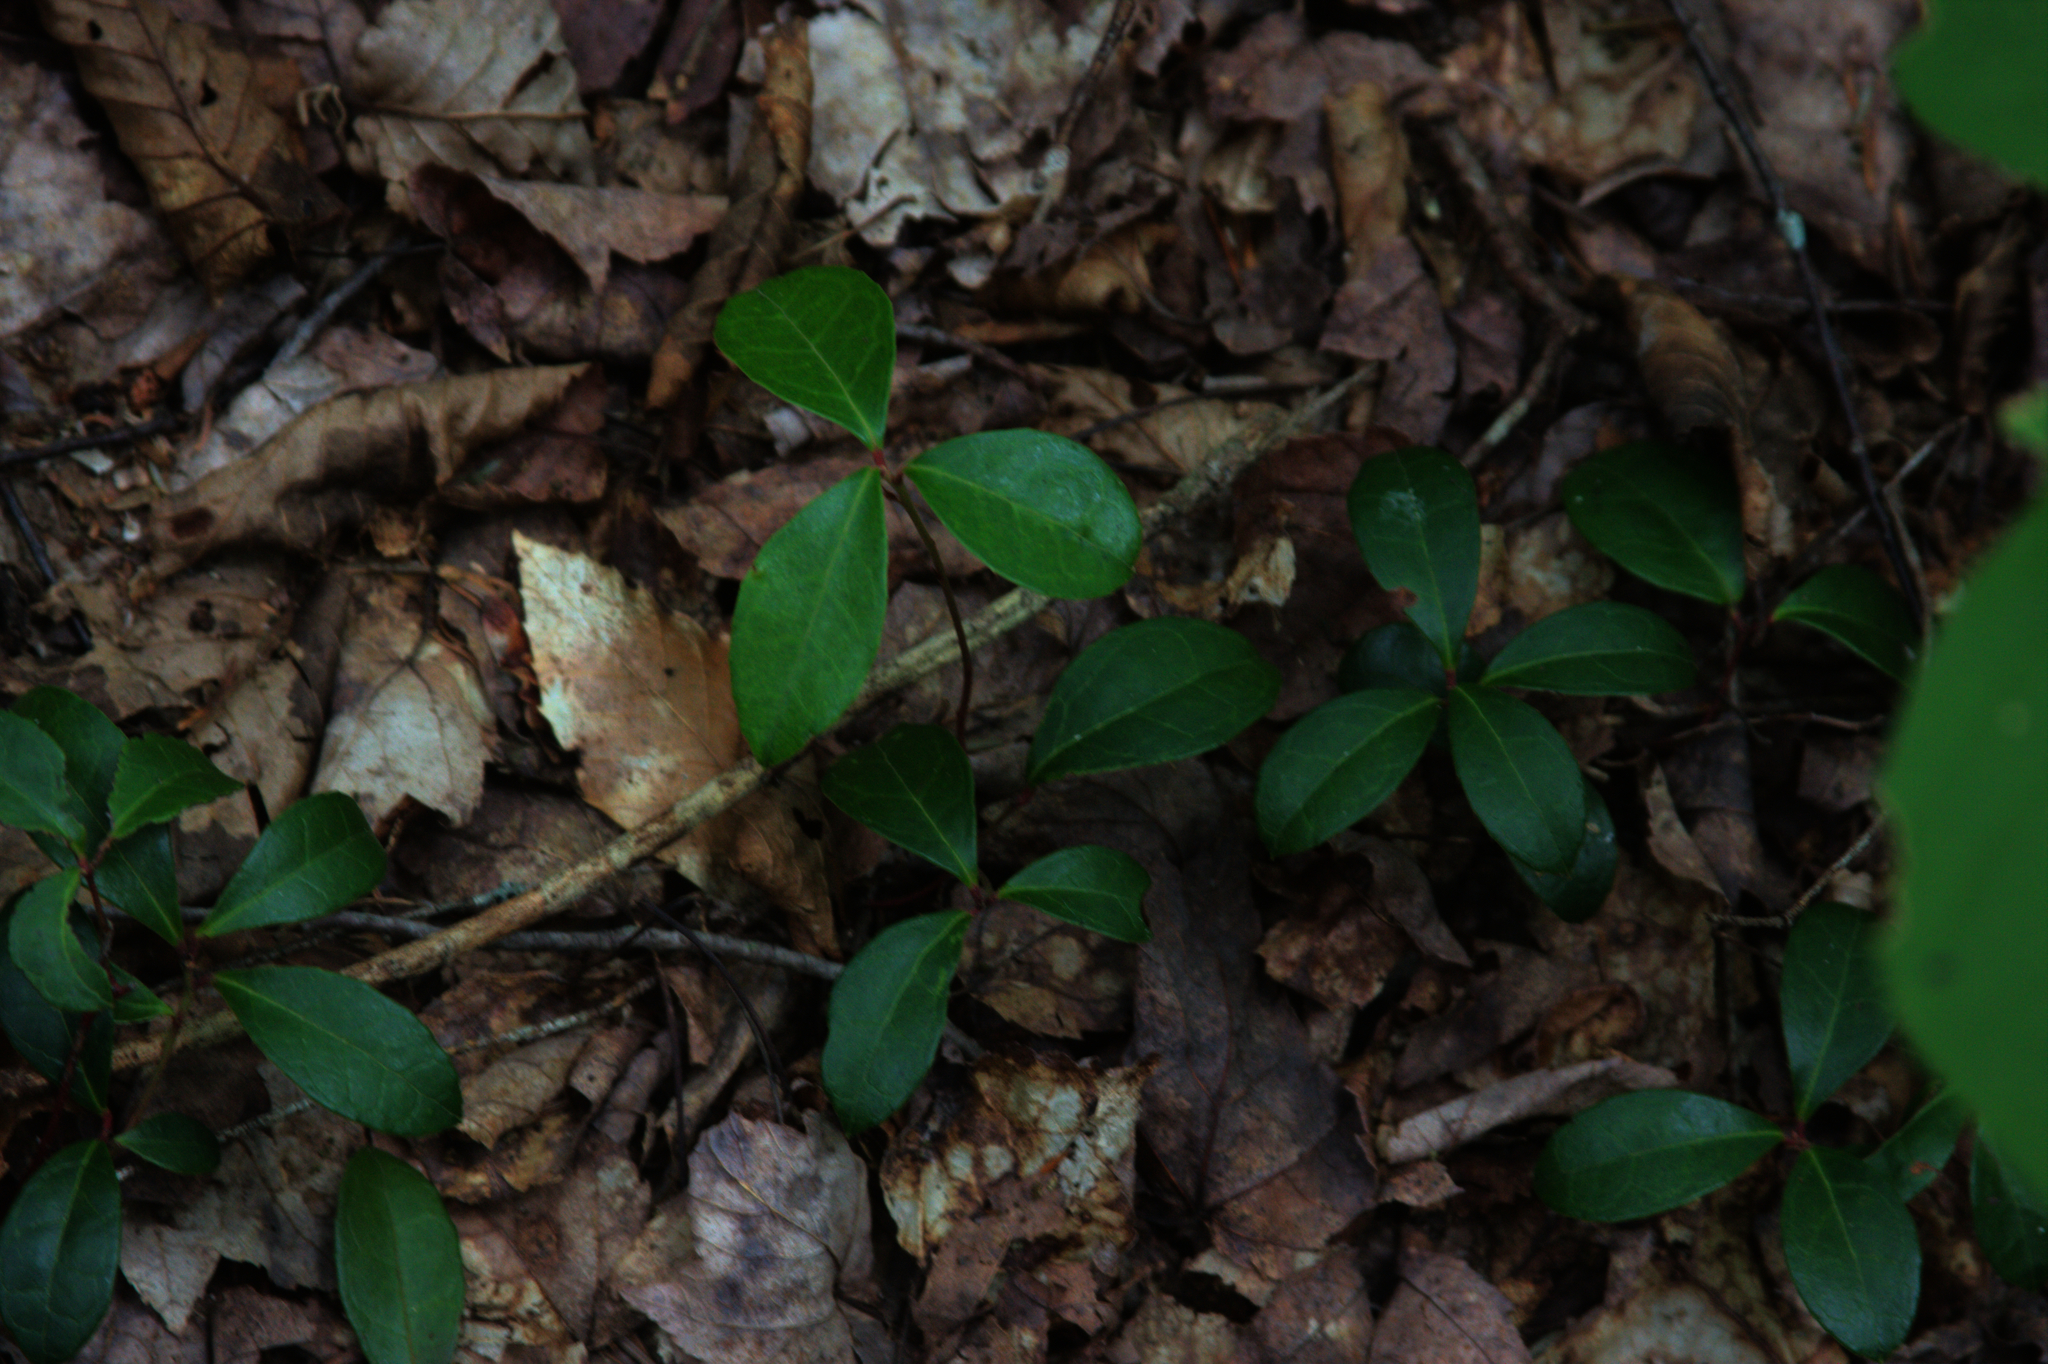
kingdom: Plantae
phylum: Tracheophyta
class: Magnoliopsida
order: Ericales
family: Ericaceae
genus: Gaultheria
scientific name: Gaultheria procumbens
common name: Checkerberry
